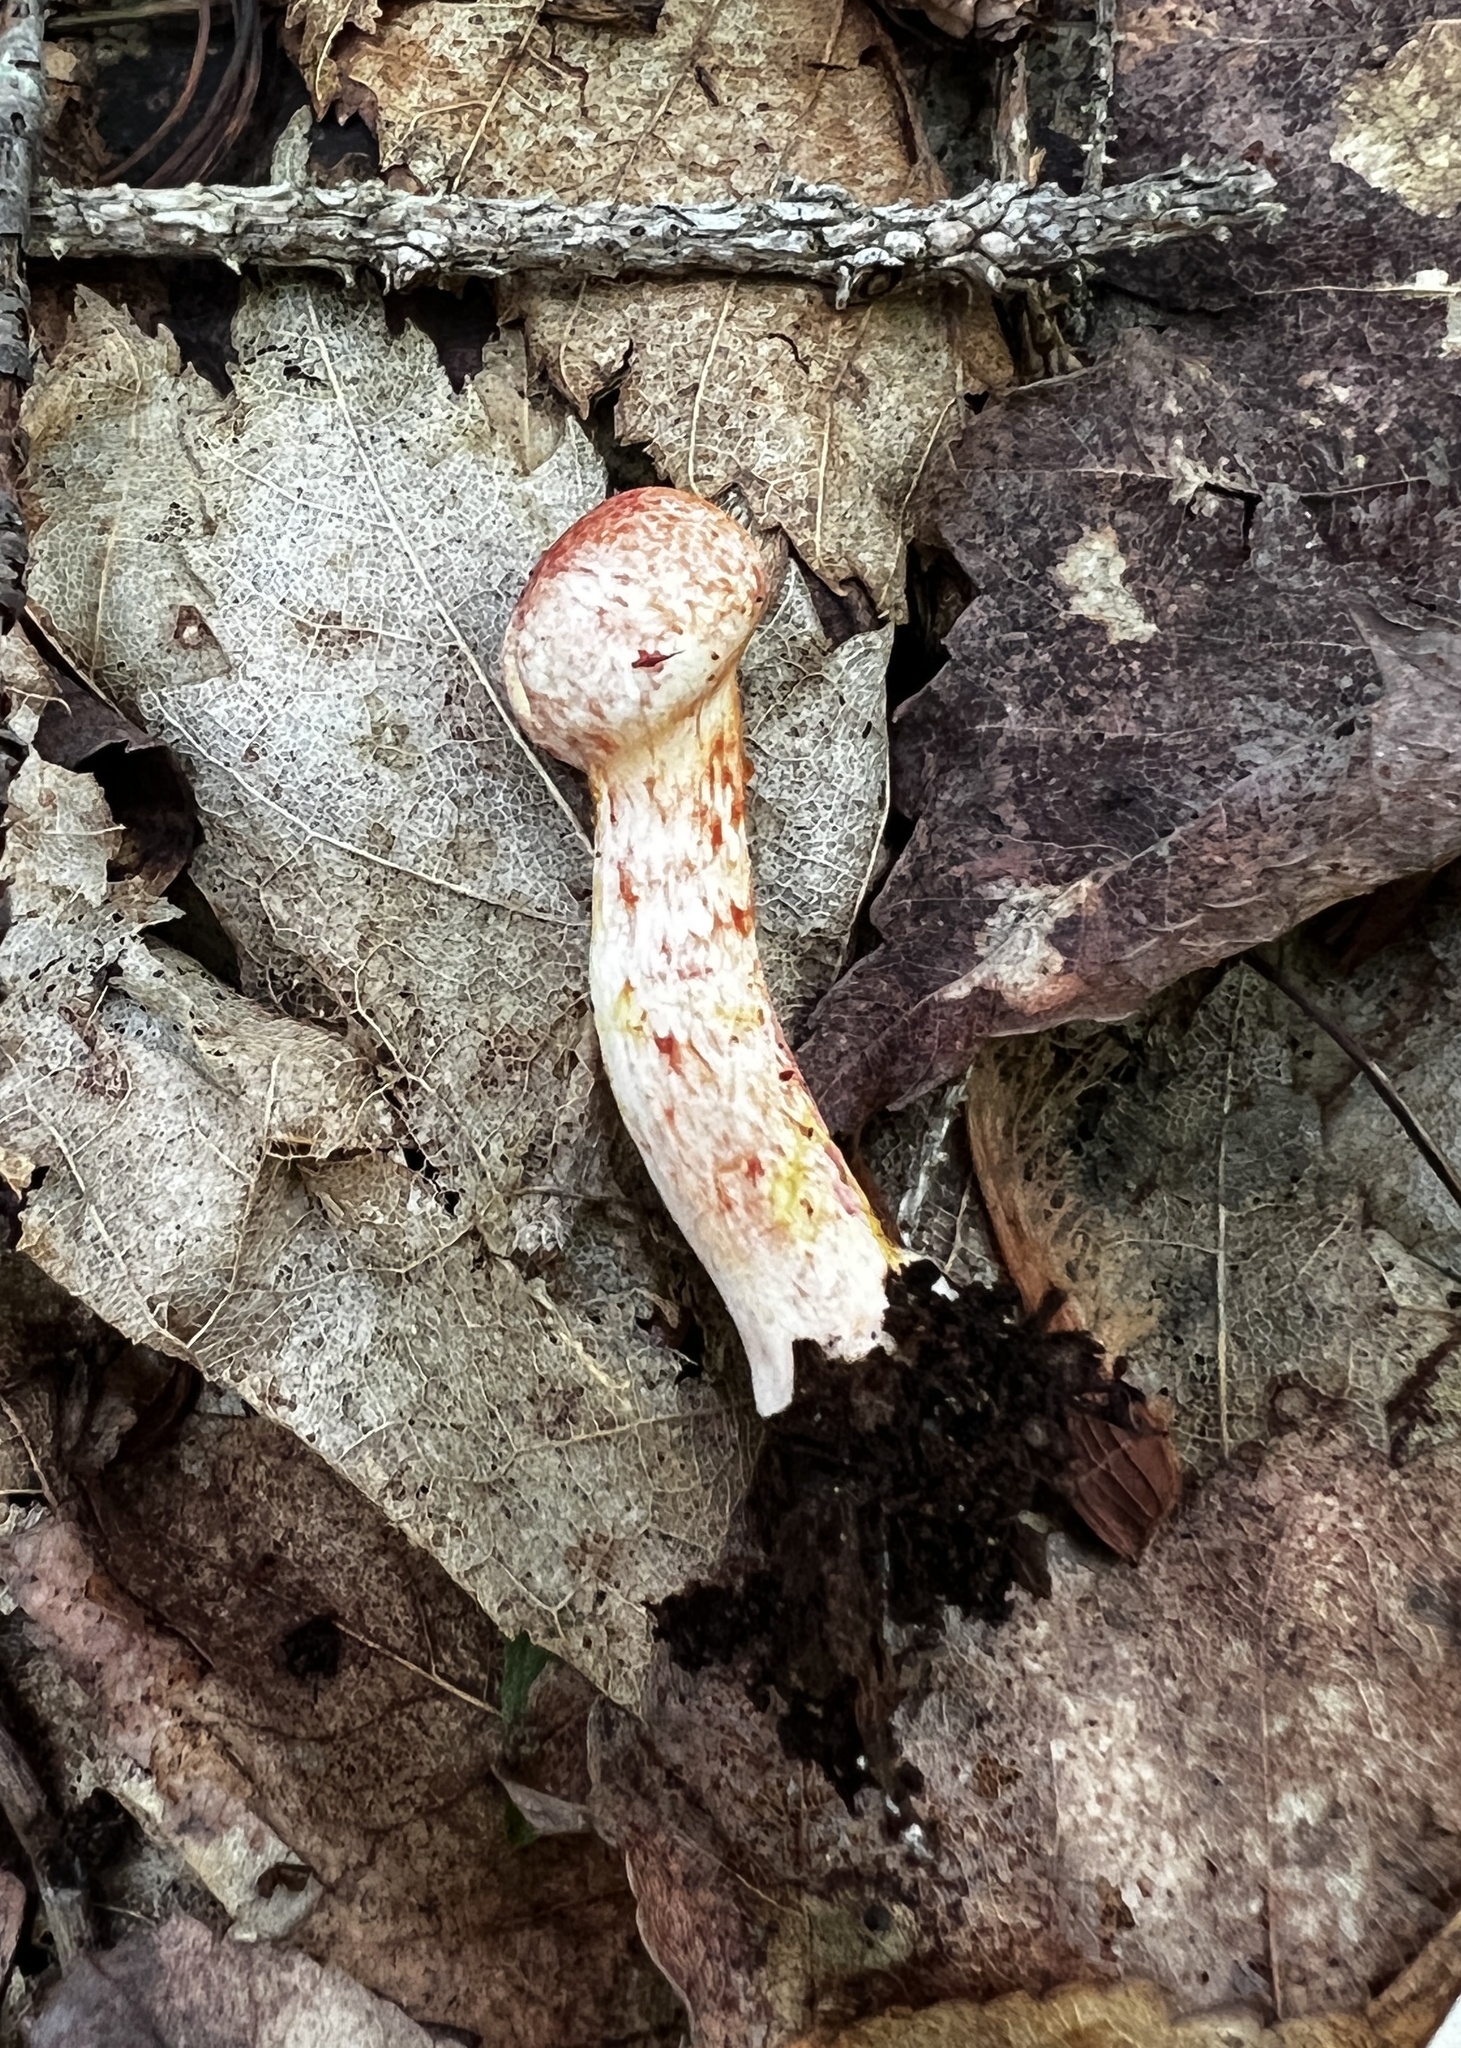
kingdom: Fungi
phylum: Basidiomycota
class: Agaricomycetes
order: Agaricales
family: Cortinariaceae
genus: Cortinarius
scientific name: Cortinarius bolaris
